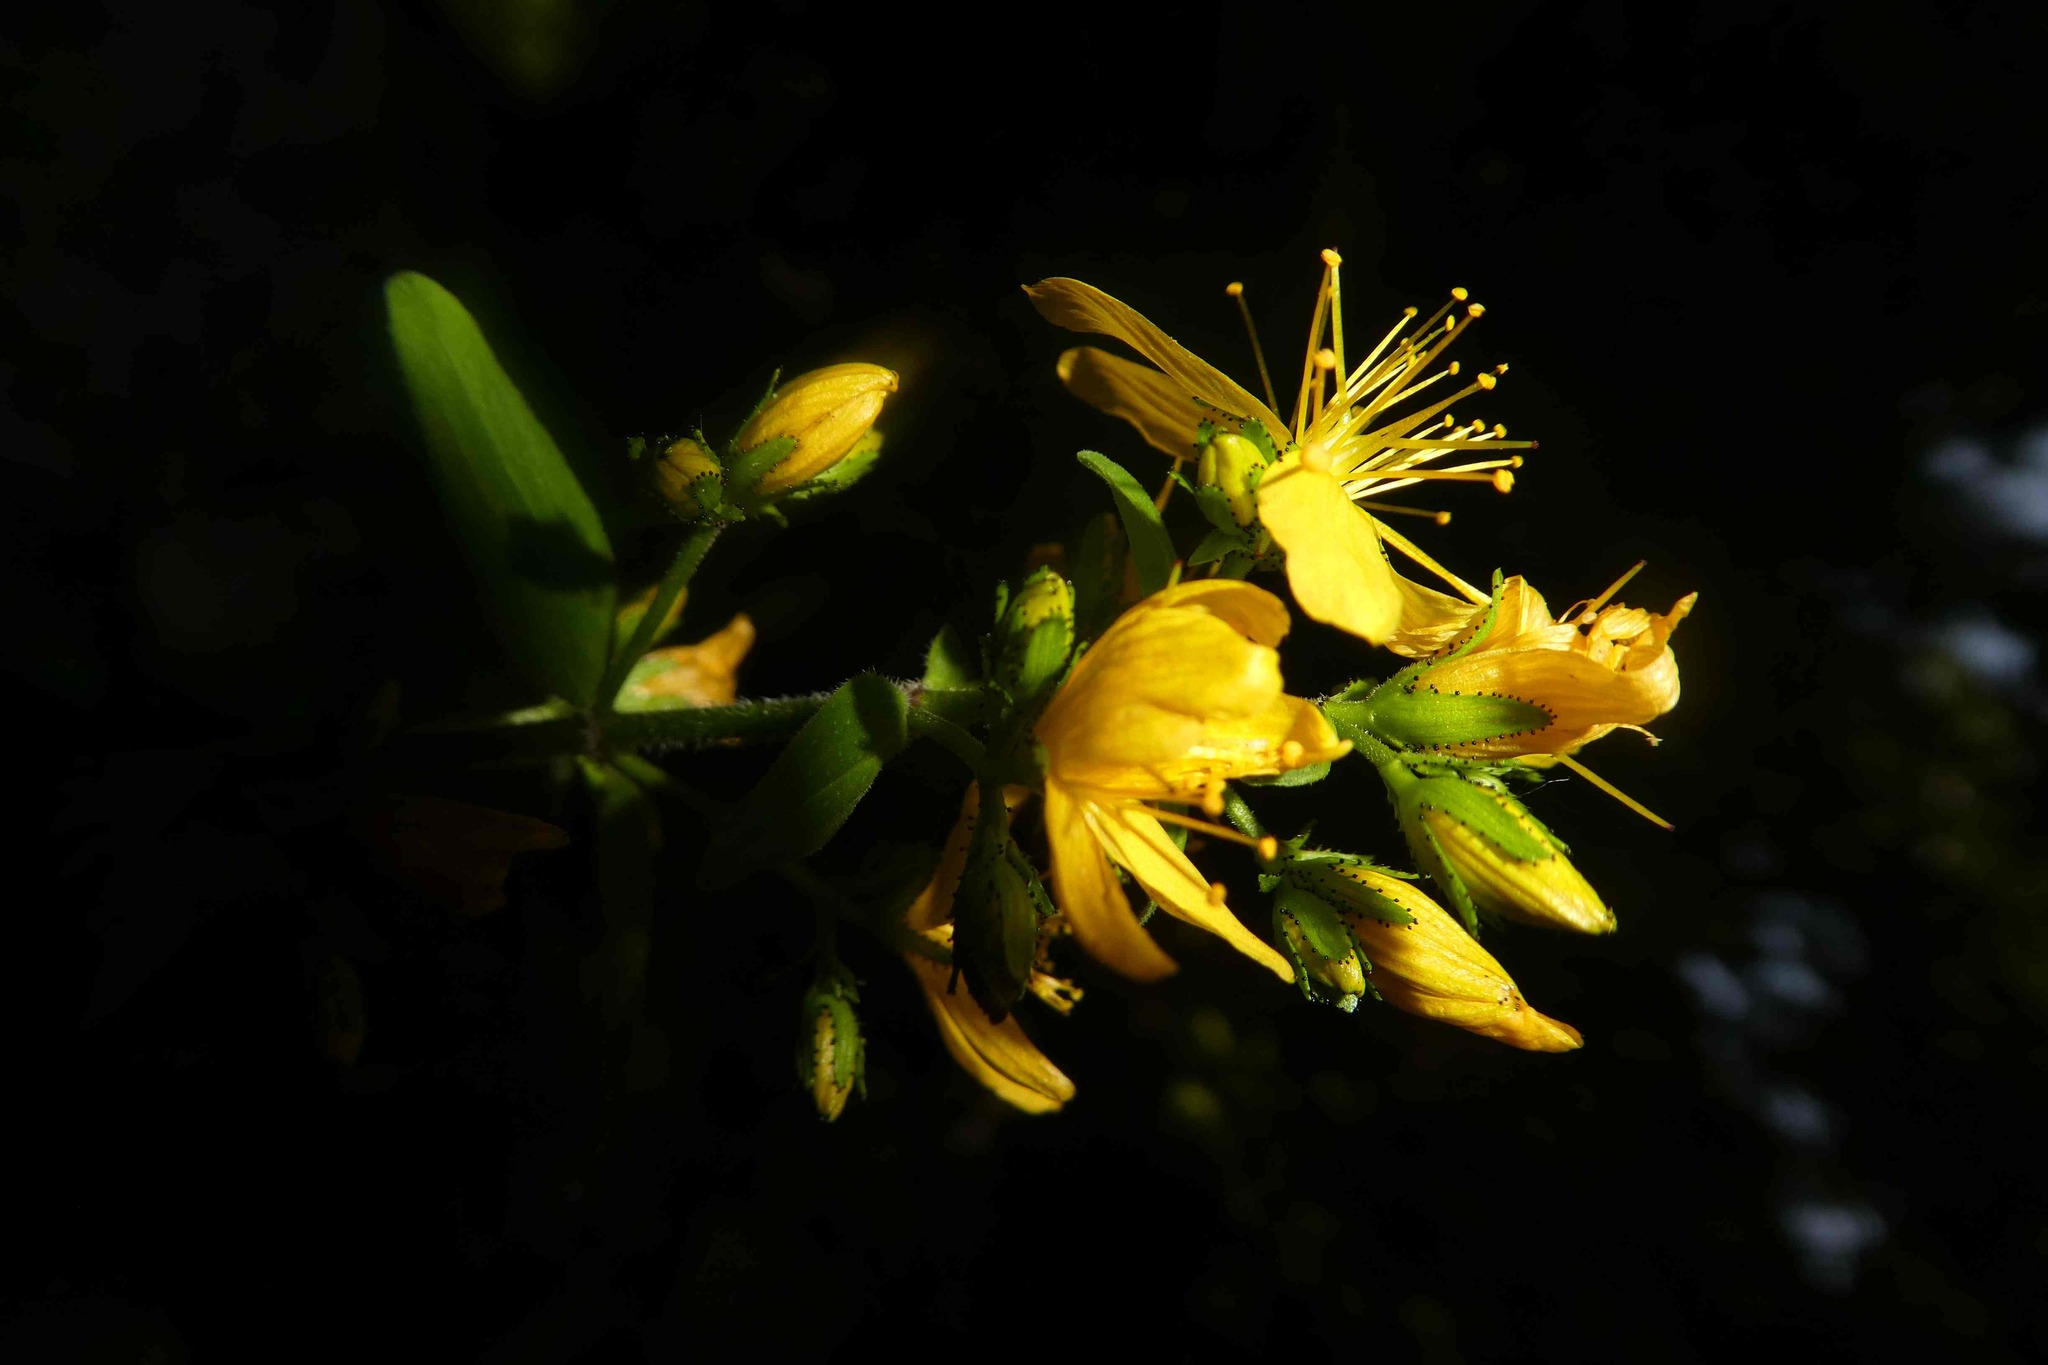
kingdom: Plantae
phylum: Tracheophyta
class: Magnoliopsida
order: Malpighiales
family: Hypericaceae
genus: Hypericum
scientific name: Hypericum hirsutum
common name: Hairy st. john's-wort
